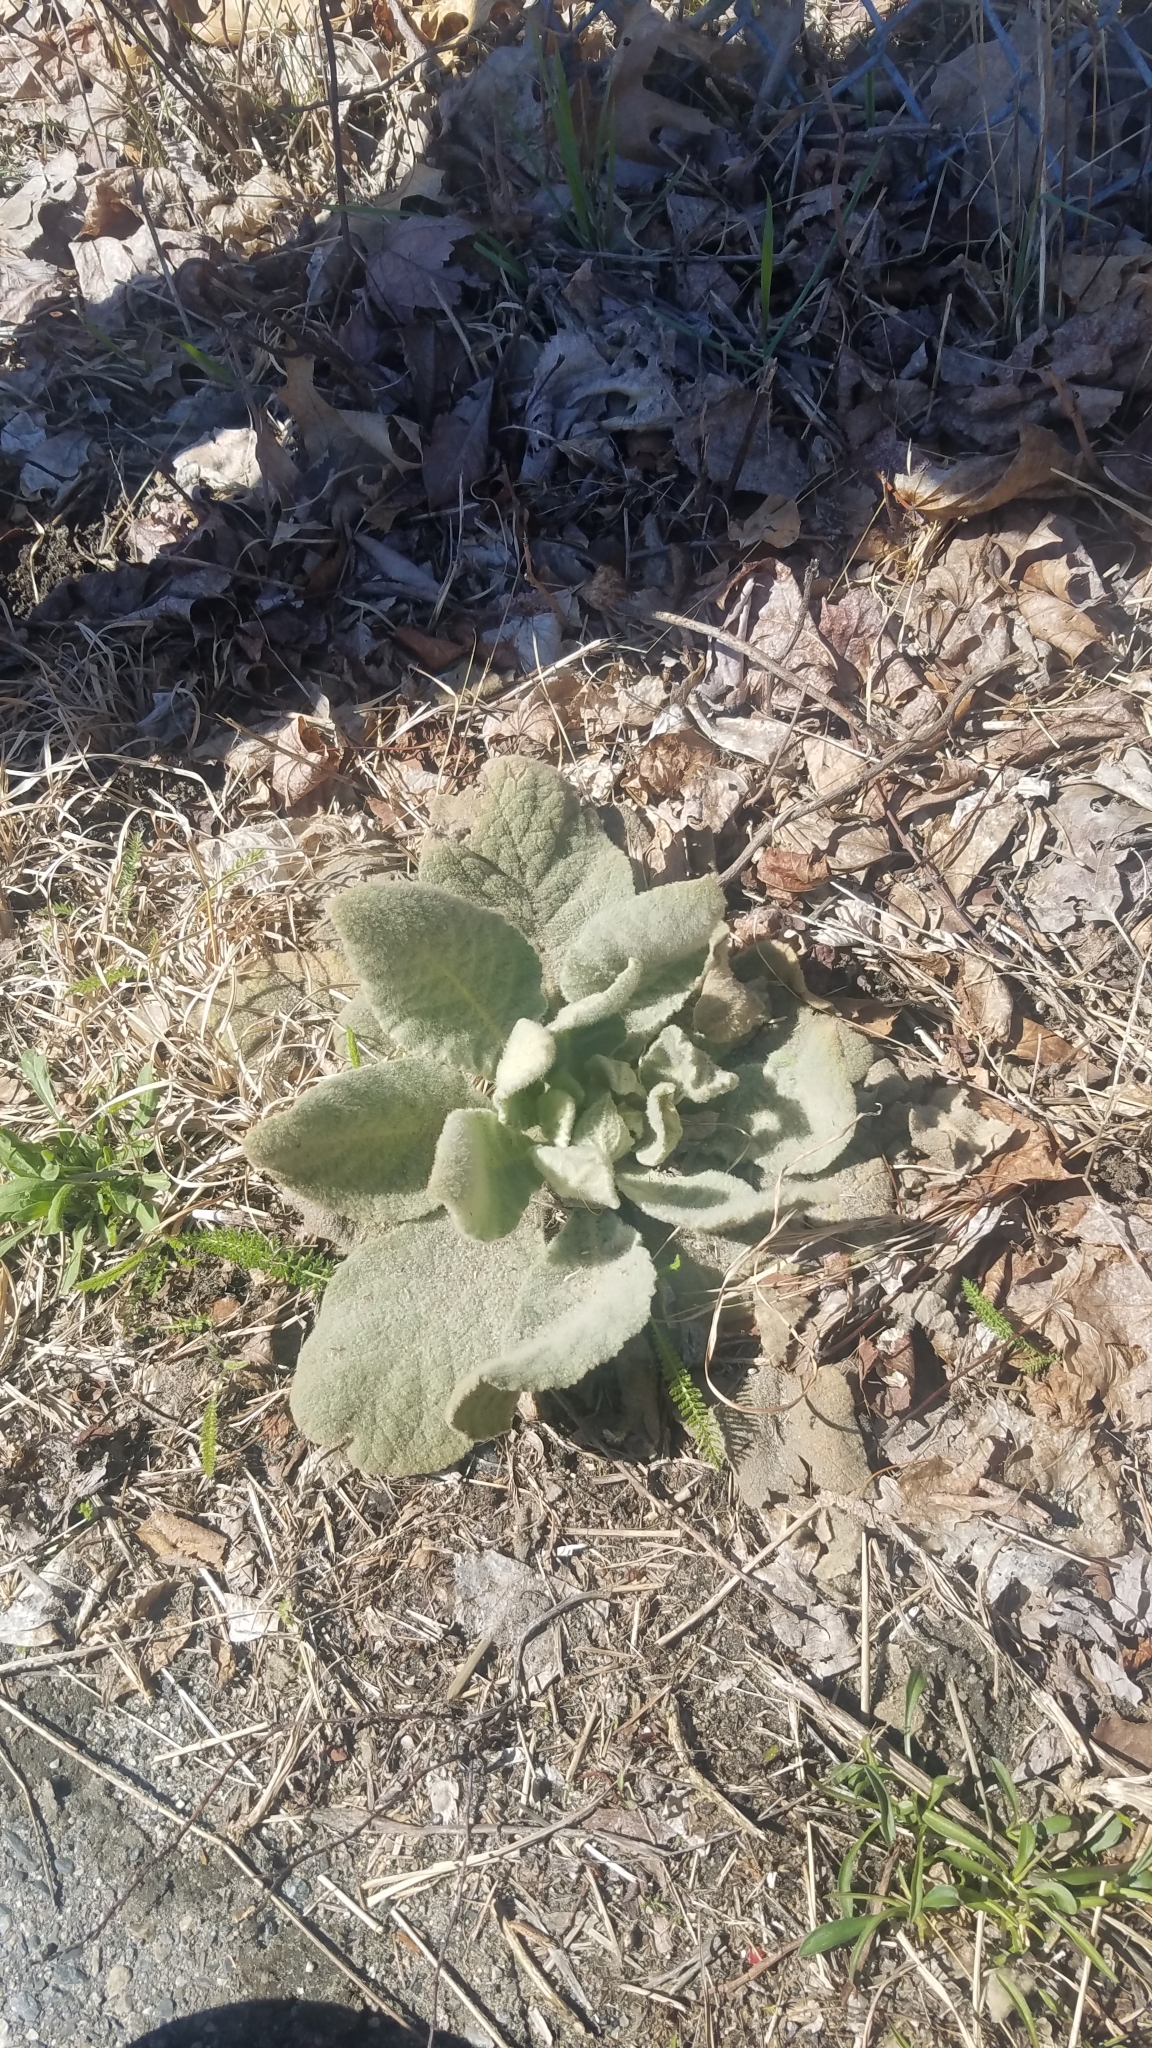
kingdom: Plantae
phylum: Tracheophyta
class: Magnoliopsida
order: Lamiales
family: Scrophulariaceae
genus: Verbascum
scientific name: Verbascum thapsus
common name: Common mullein
